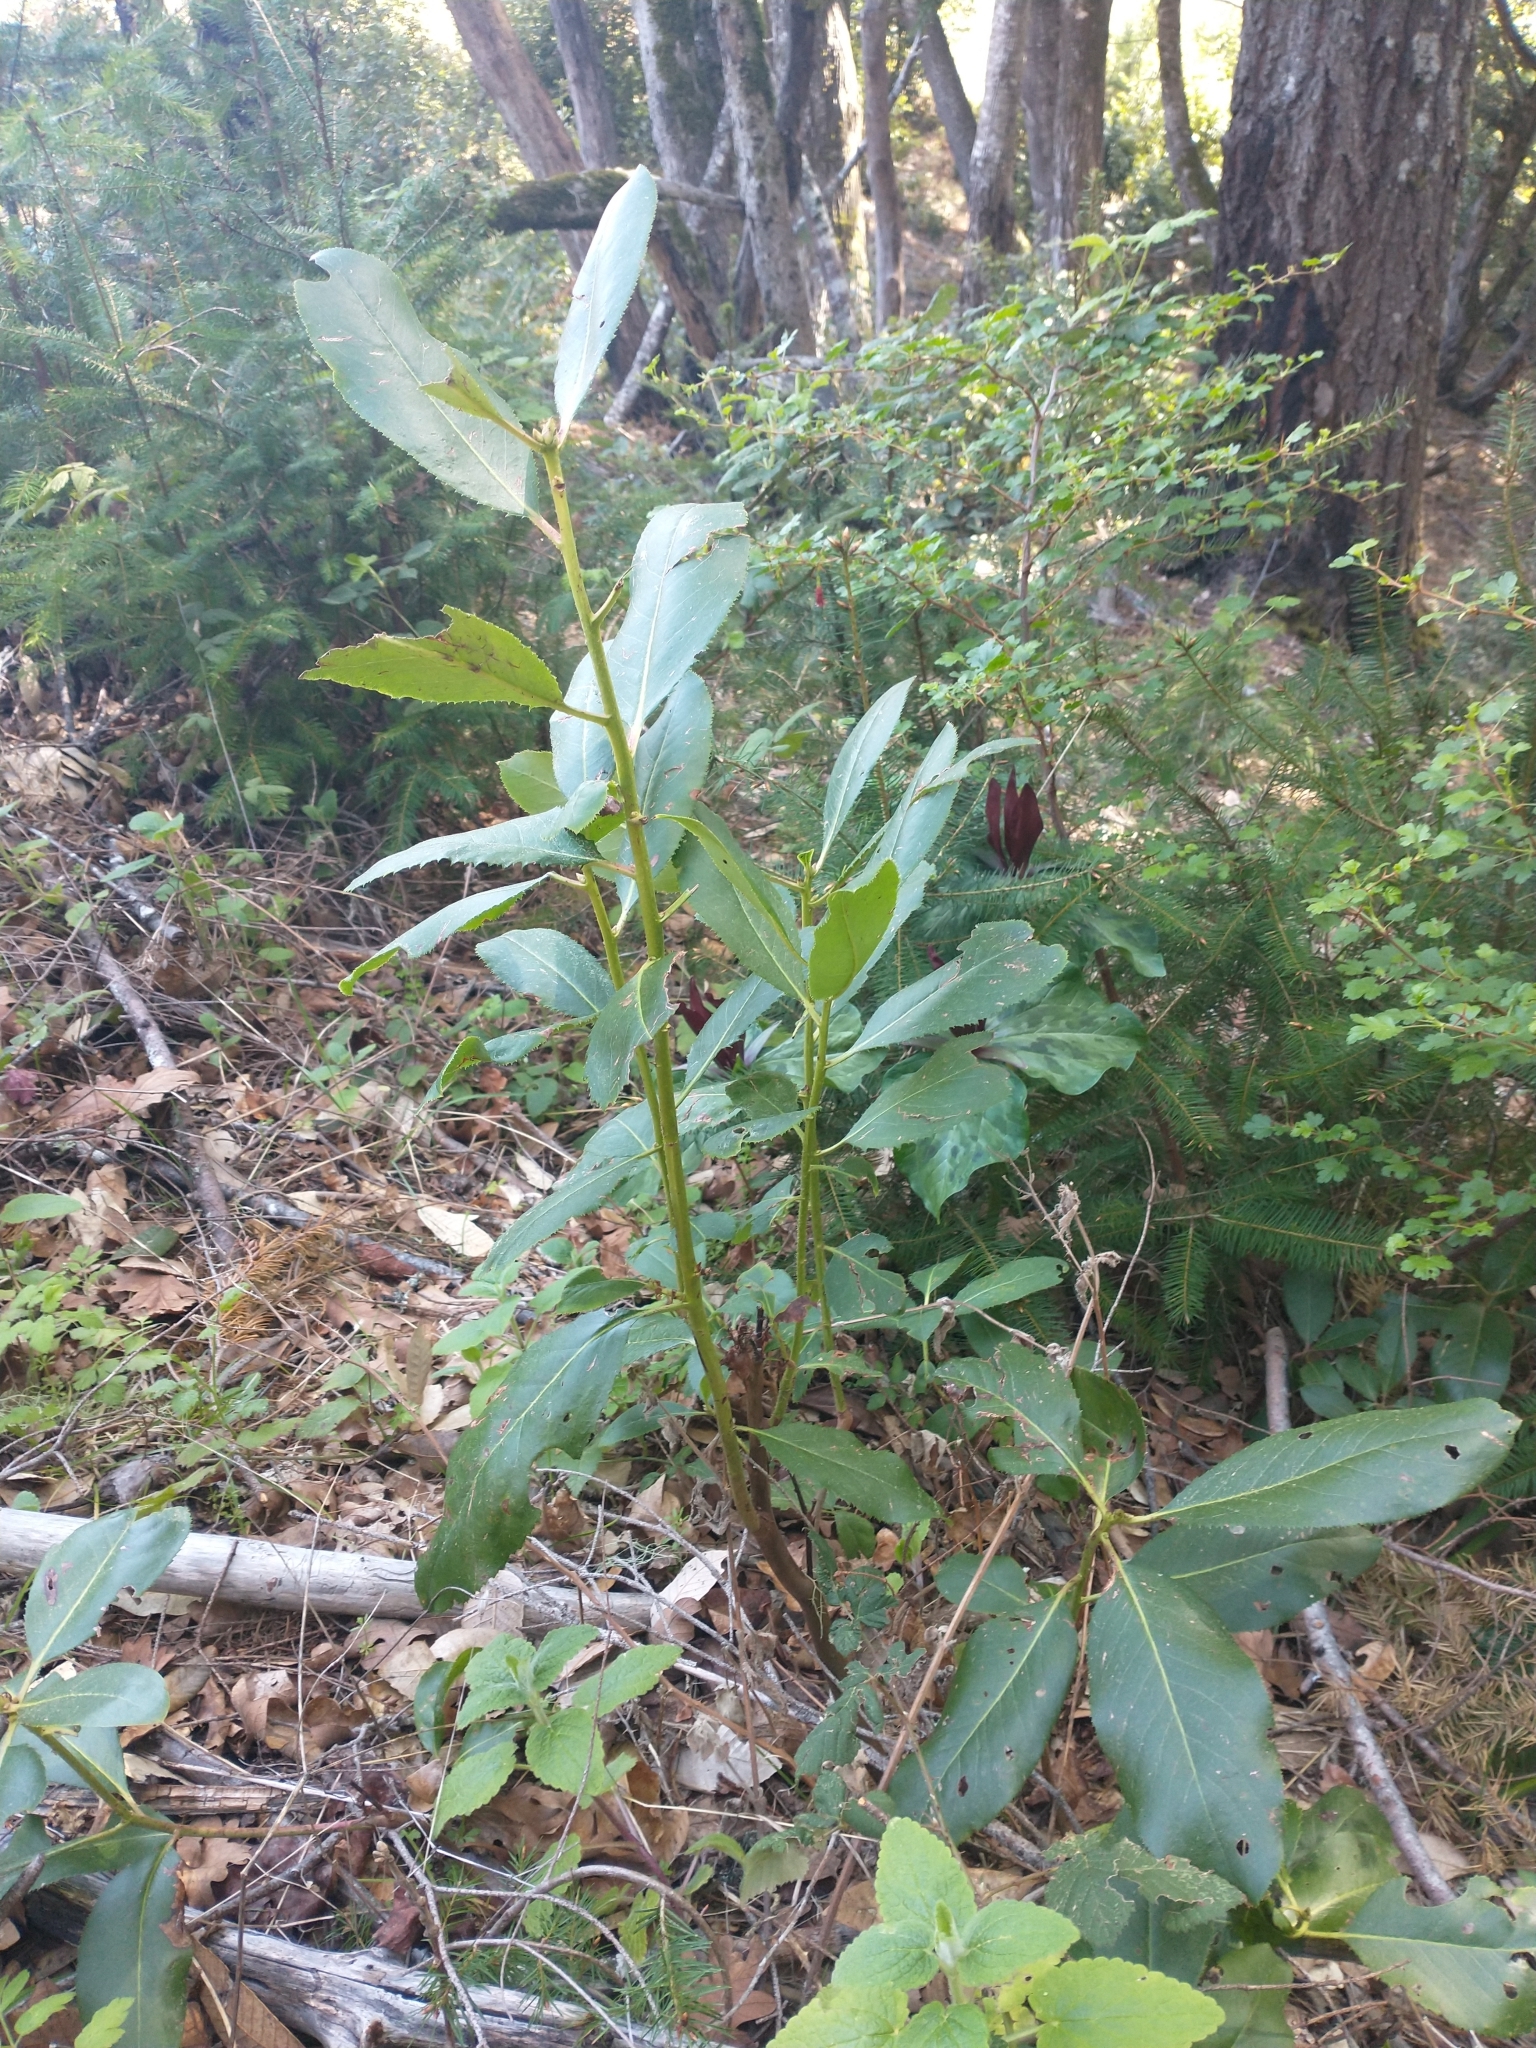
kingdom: Plantae
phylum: Tracheophyta
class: Magnoliopsida
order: Ericales
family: Ericaceae
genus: Arbutus
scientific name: Arbutus menziesii
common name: Pacific madrone
